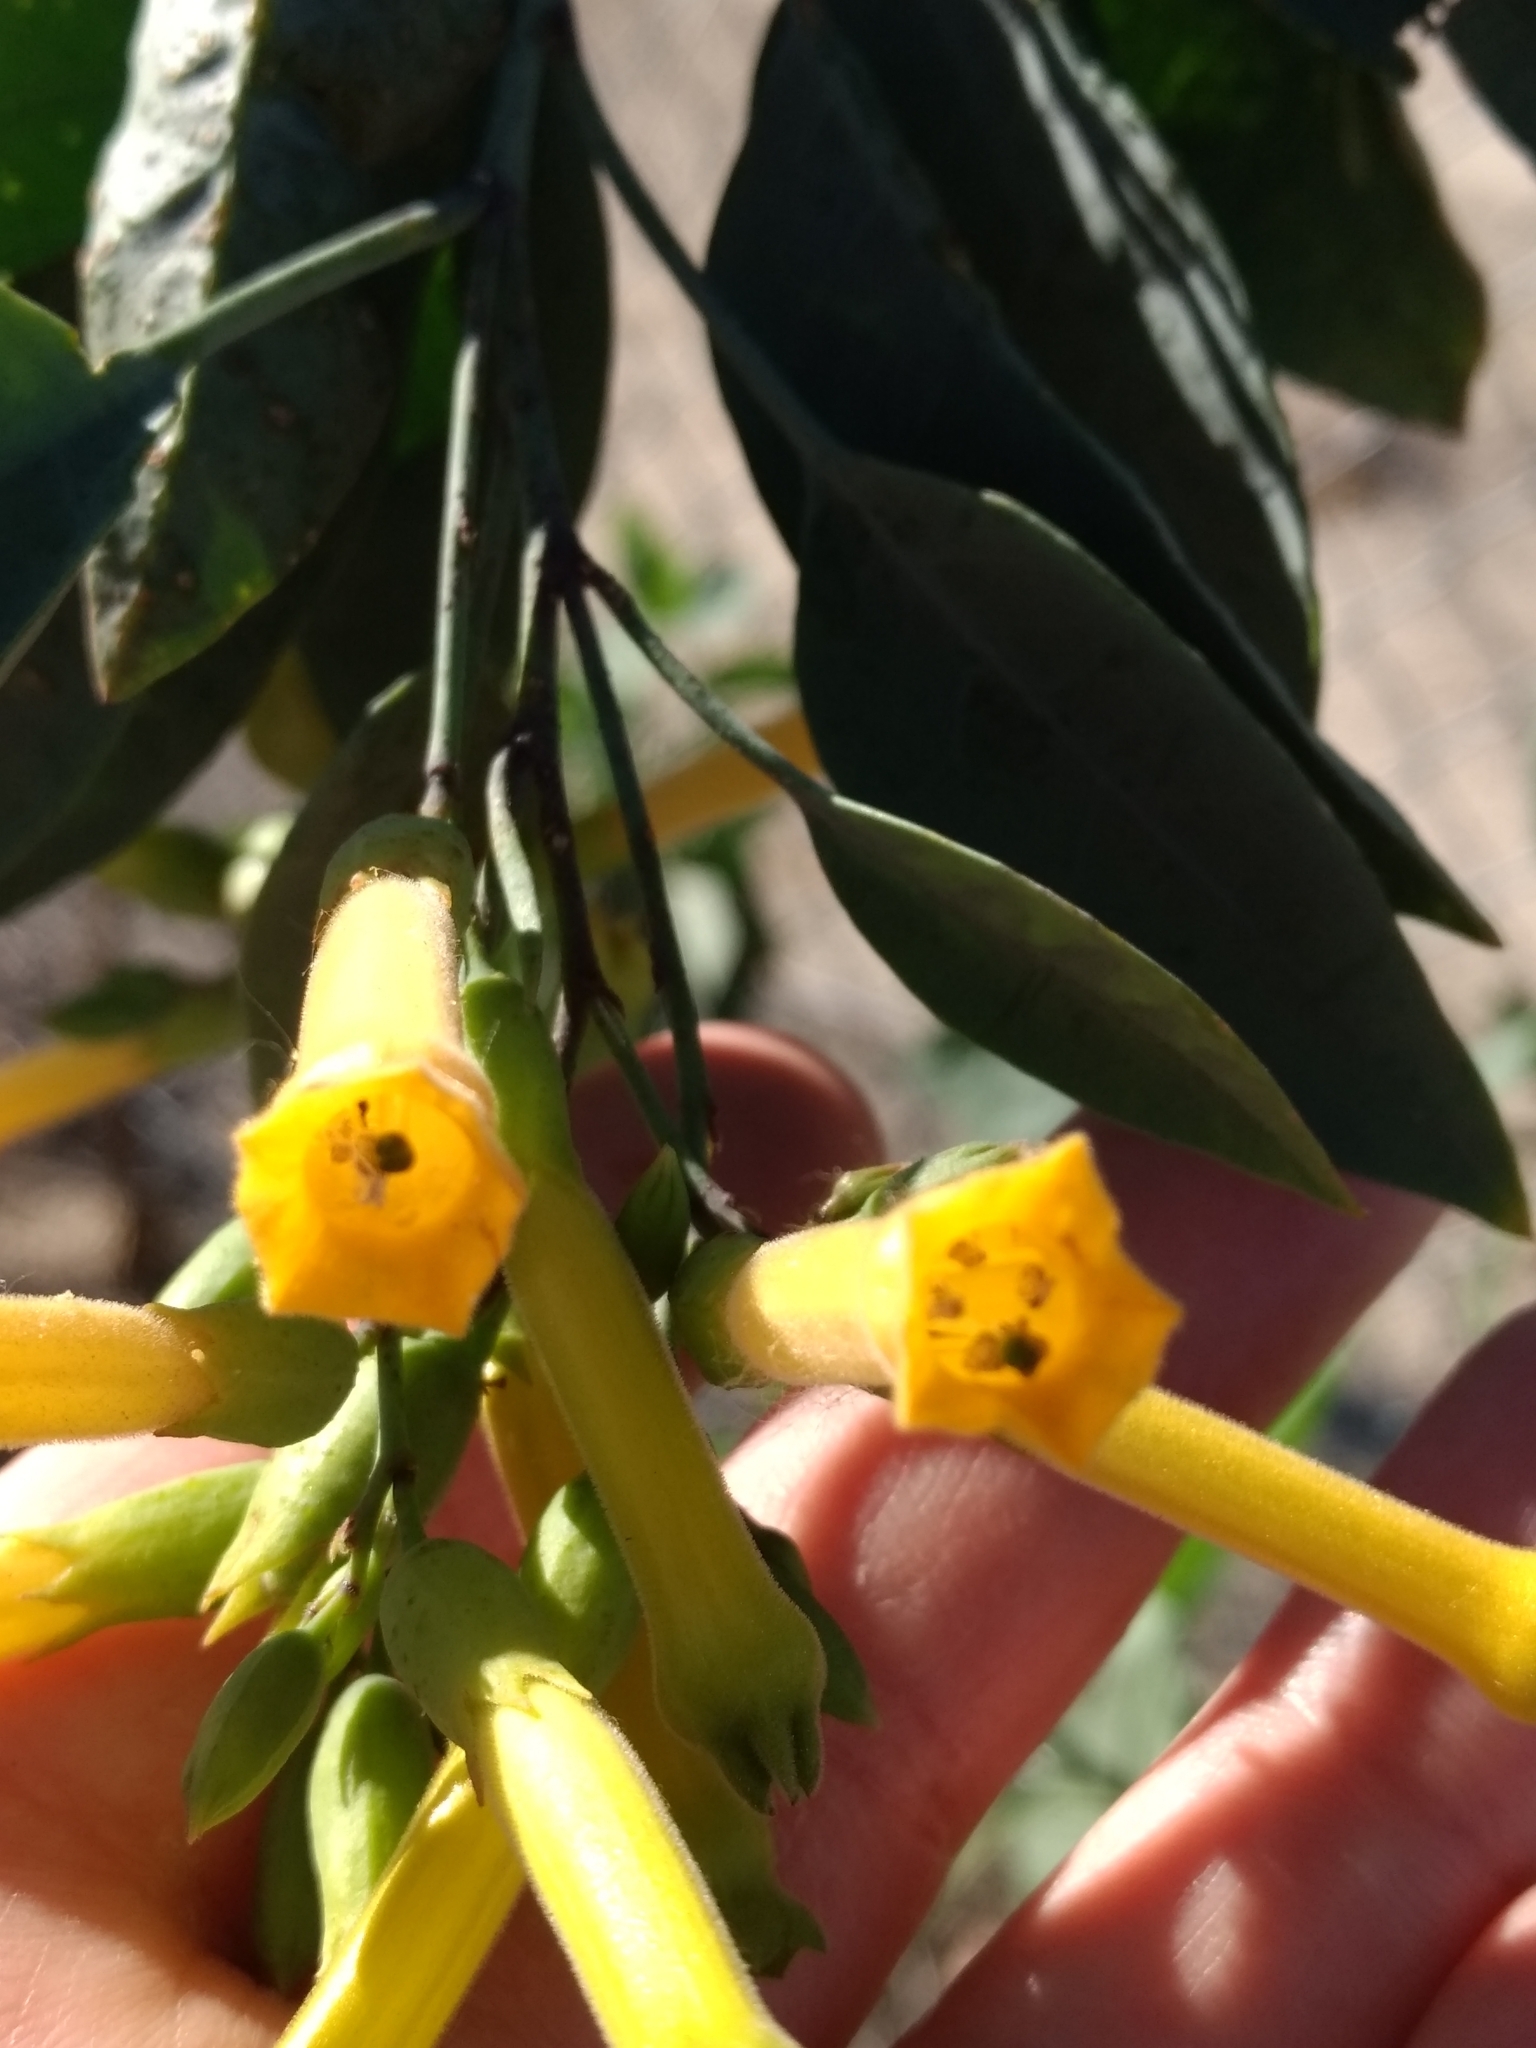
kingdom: Plantae
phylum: Tracheophyta
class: Magnoliopsida
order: Solanales
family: Solanaceae
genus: Nicotiana
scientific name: Nicotiana glauca
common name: Tree tobacco
